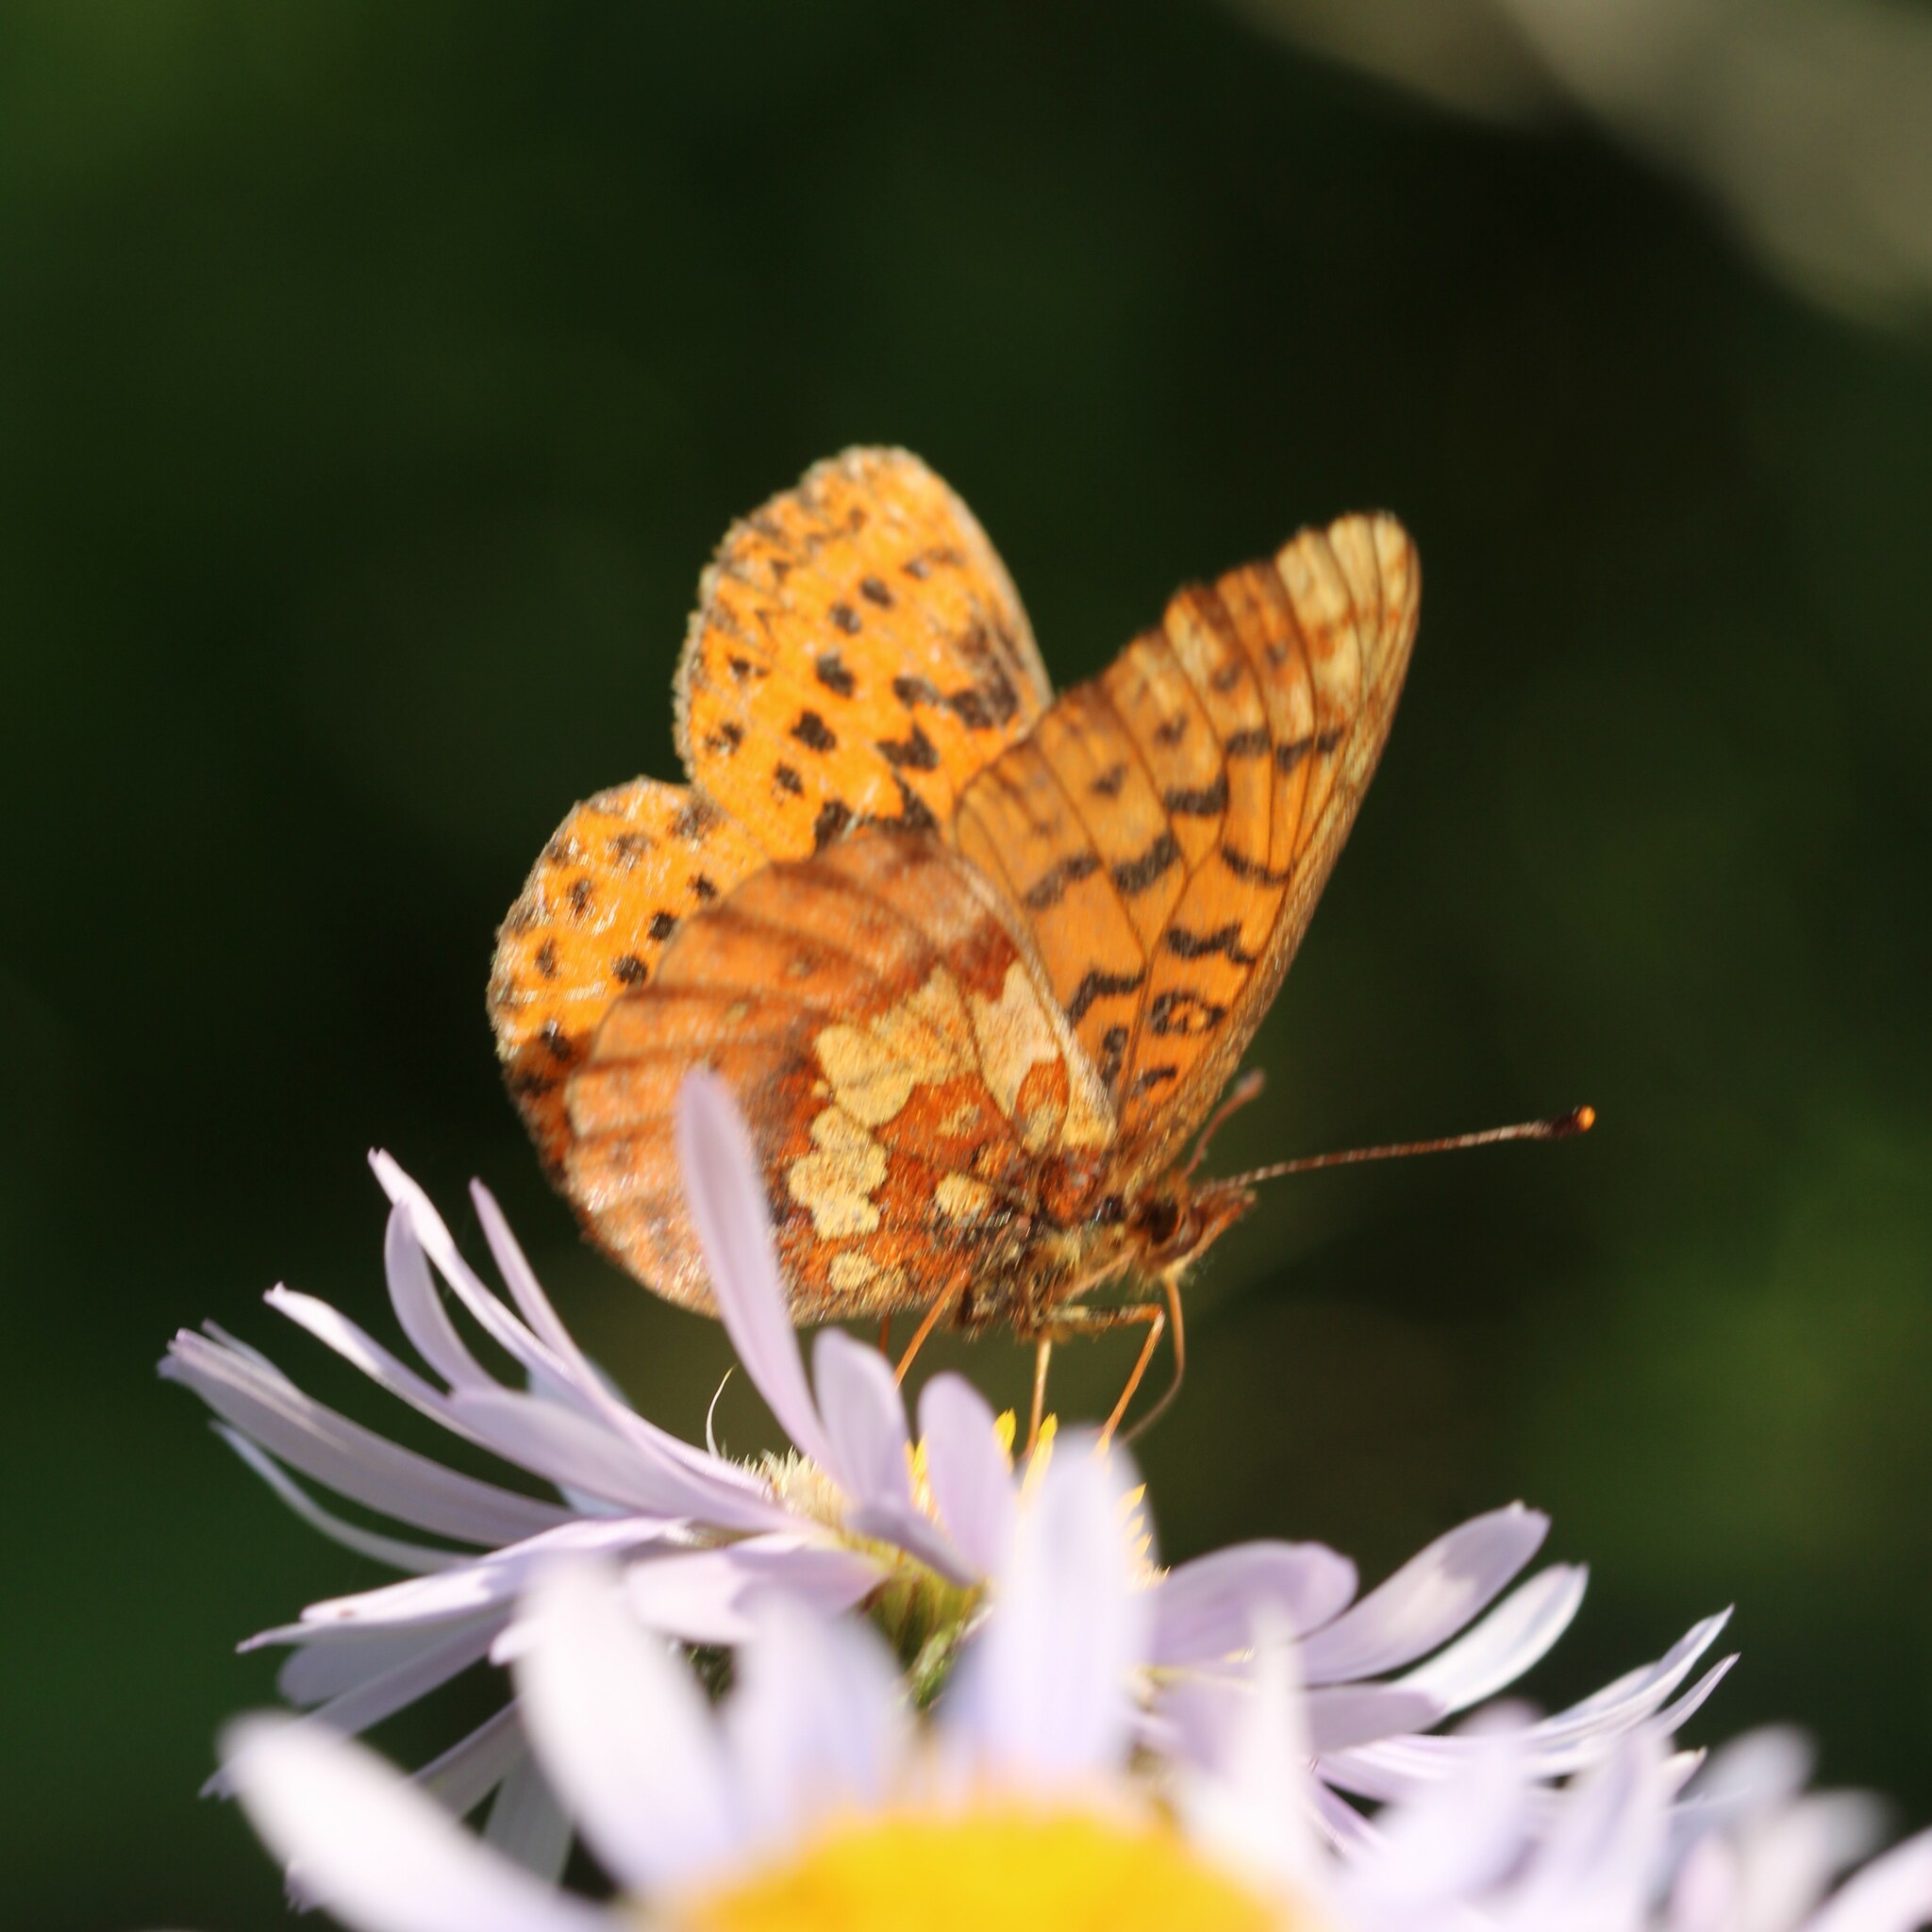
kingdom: Animalia
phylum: Arthropoda
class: Insecta
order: Lepidoptera
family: Nymphalidae
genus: Boloria
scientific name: Boloria epithore
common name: Pacific fritillary
